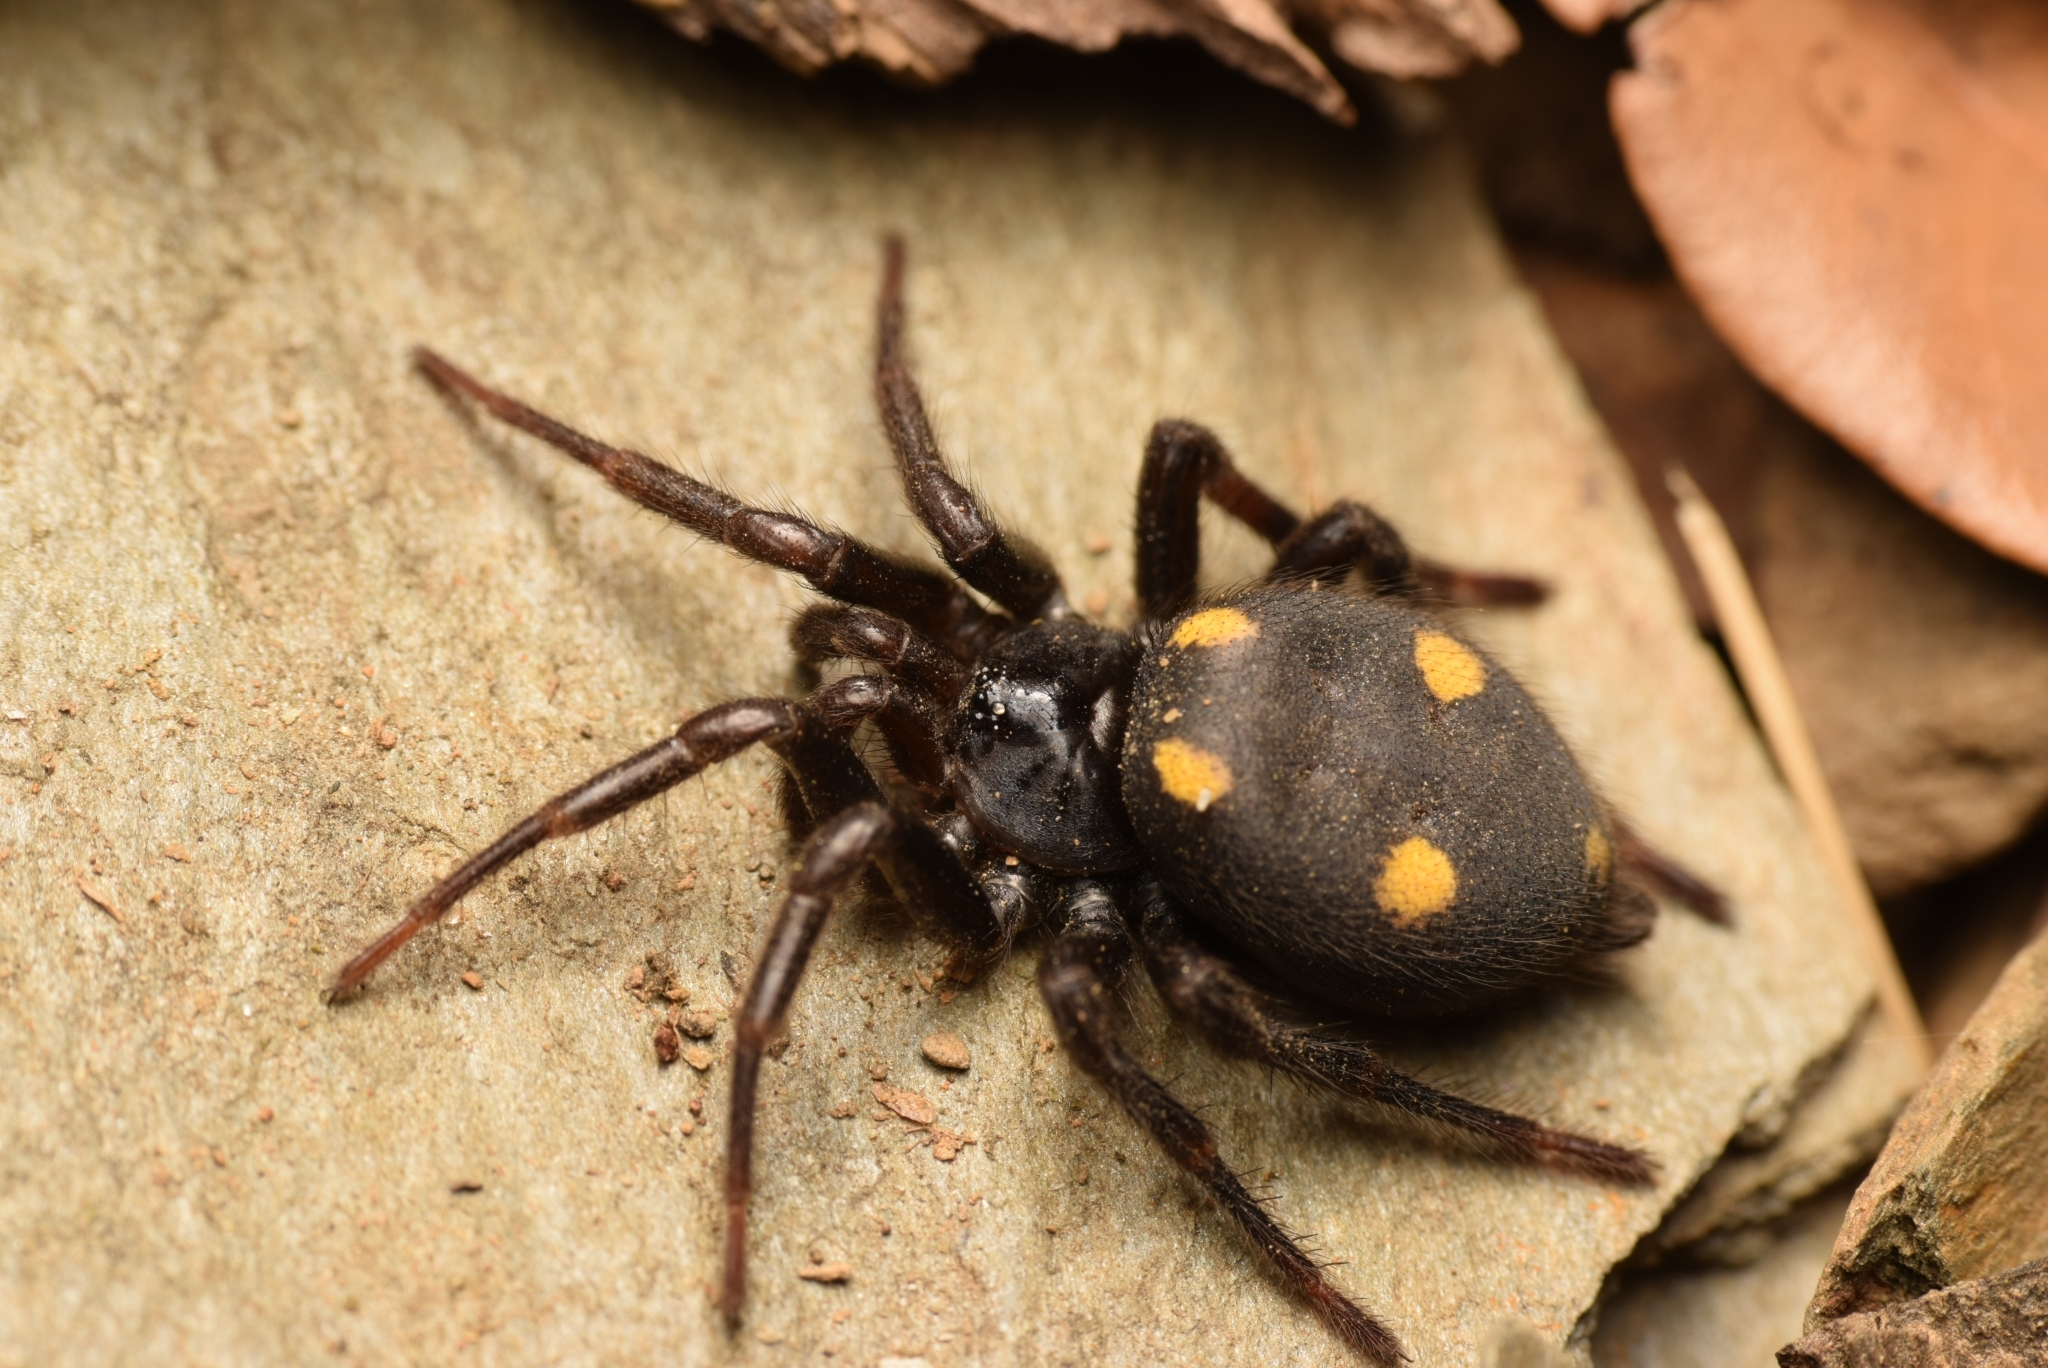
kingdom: Animalia
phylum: Arthropoda
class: Arachnida
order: Araneae
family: Oecobiidae
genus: Uroctea
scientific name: Uroctea durandi
